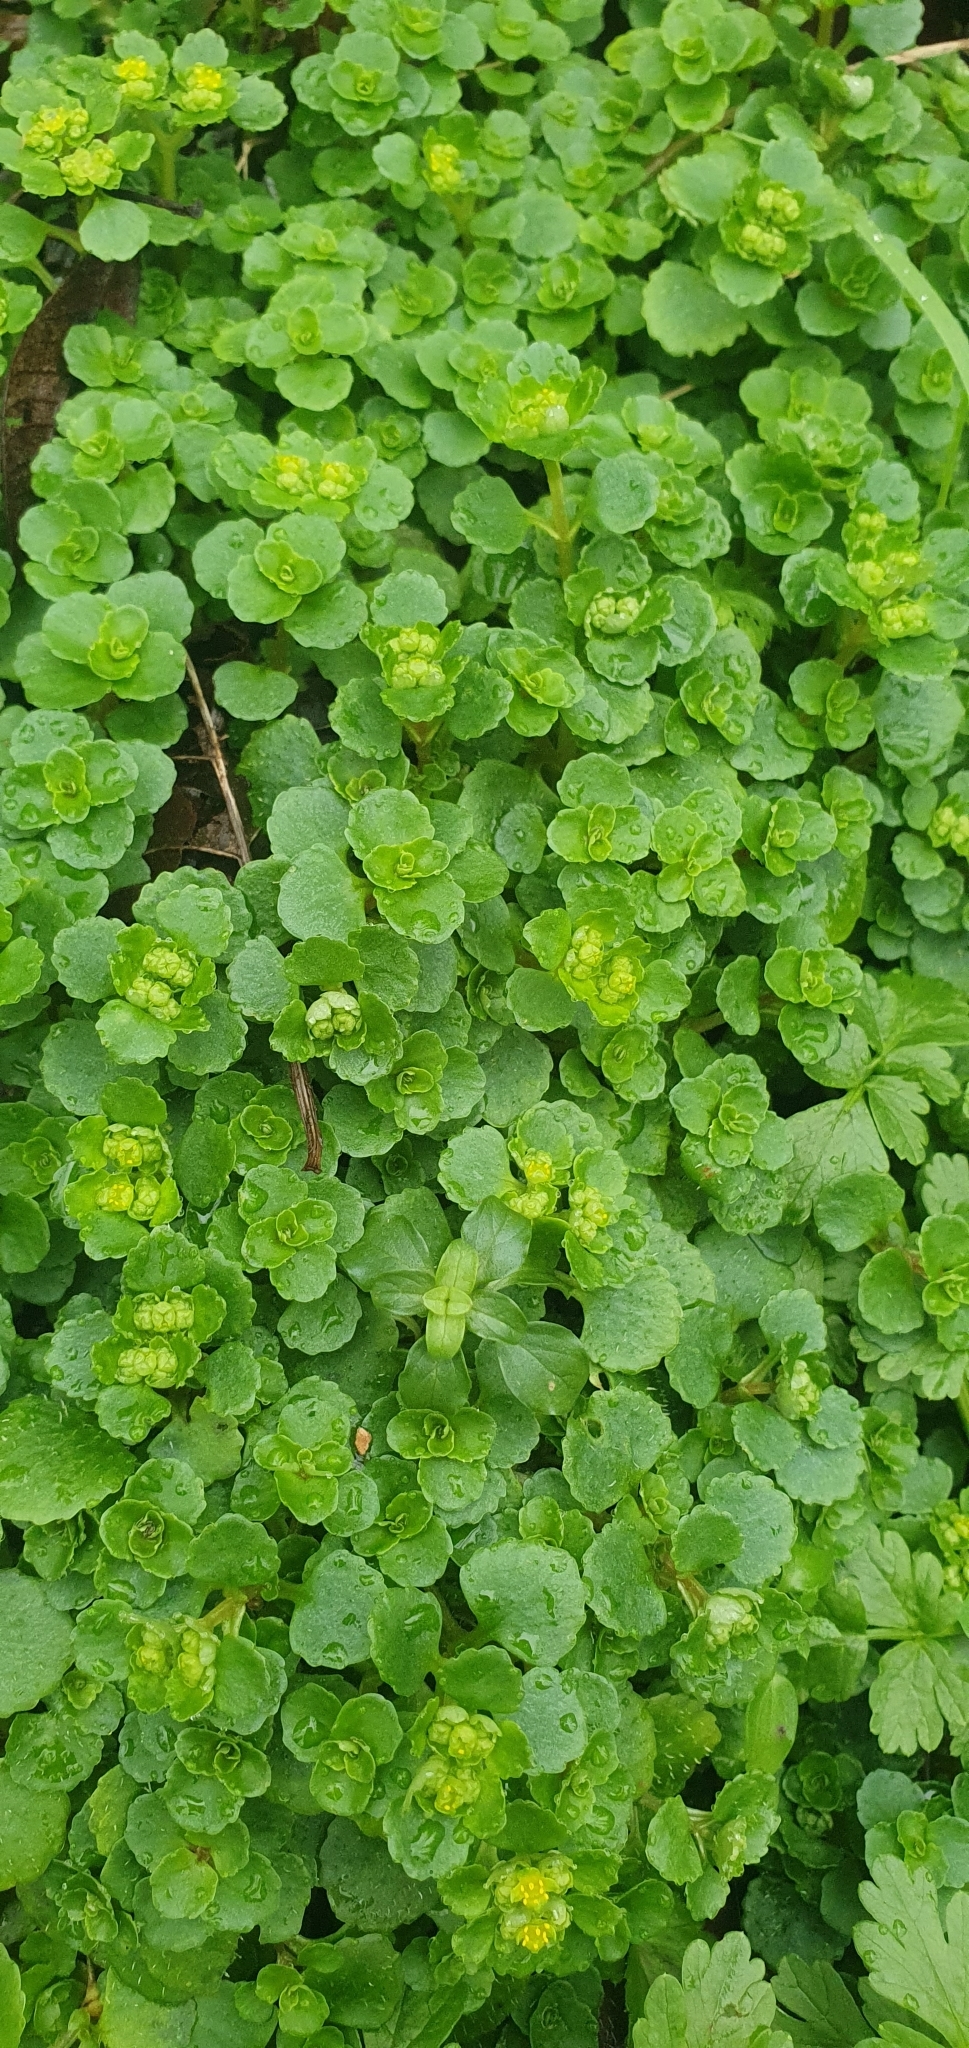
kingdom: Plantae
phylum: Tracheophyta
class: Magnoliopsida
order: Saxifragales
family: Saxifragaceae
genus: Chrysosplenium
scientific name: Chrysosplenium oppositifolium
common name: Opposite-leaved golden-saxifrage
